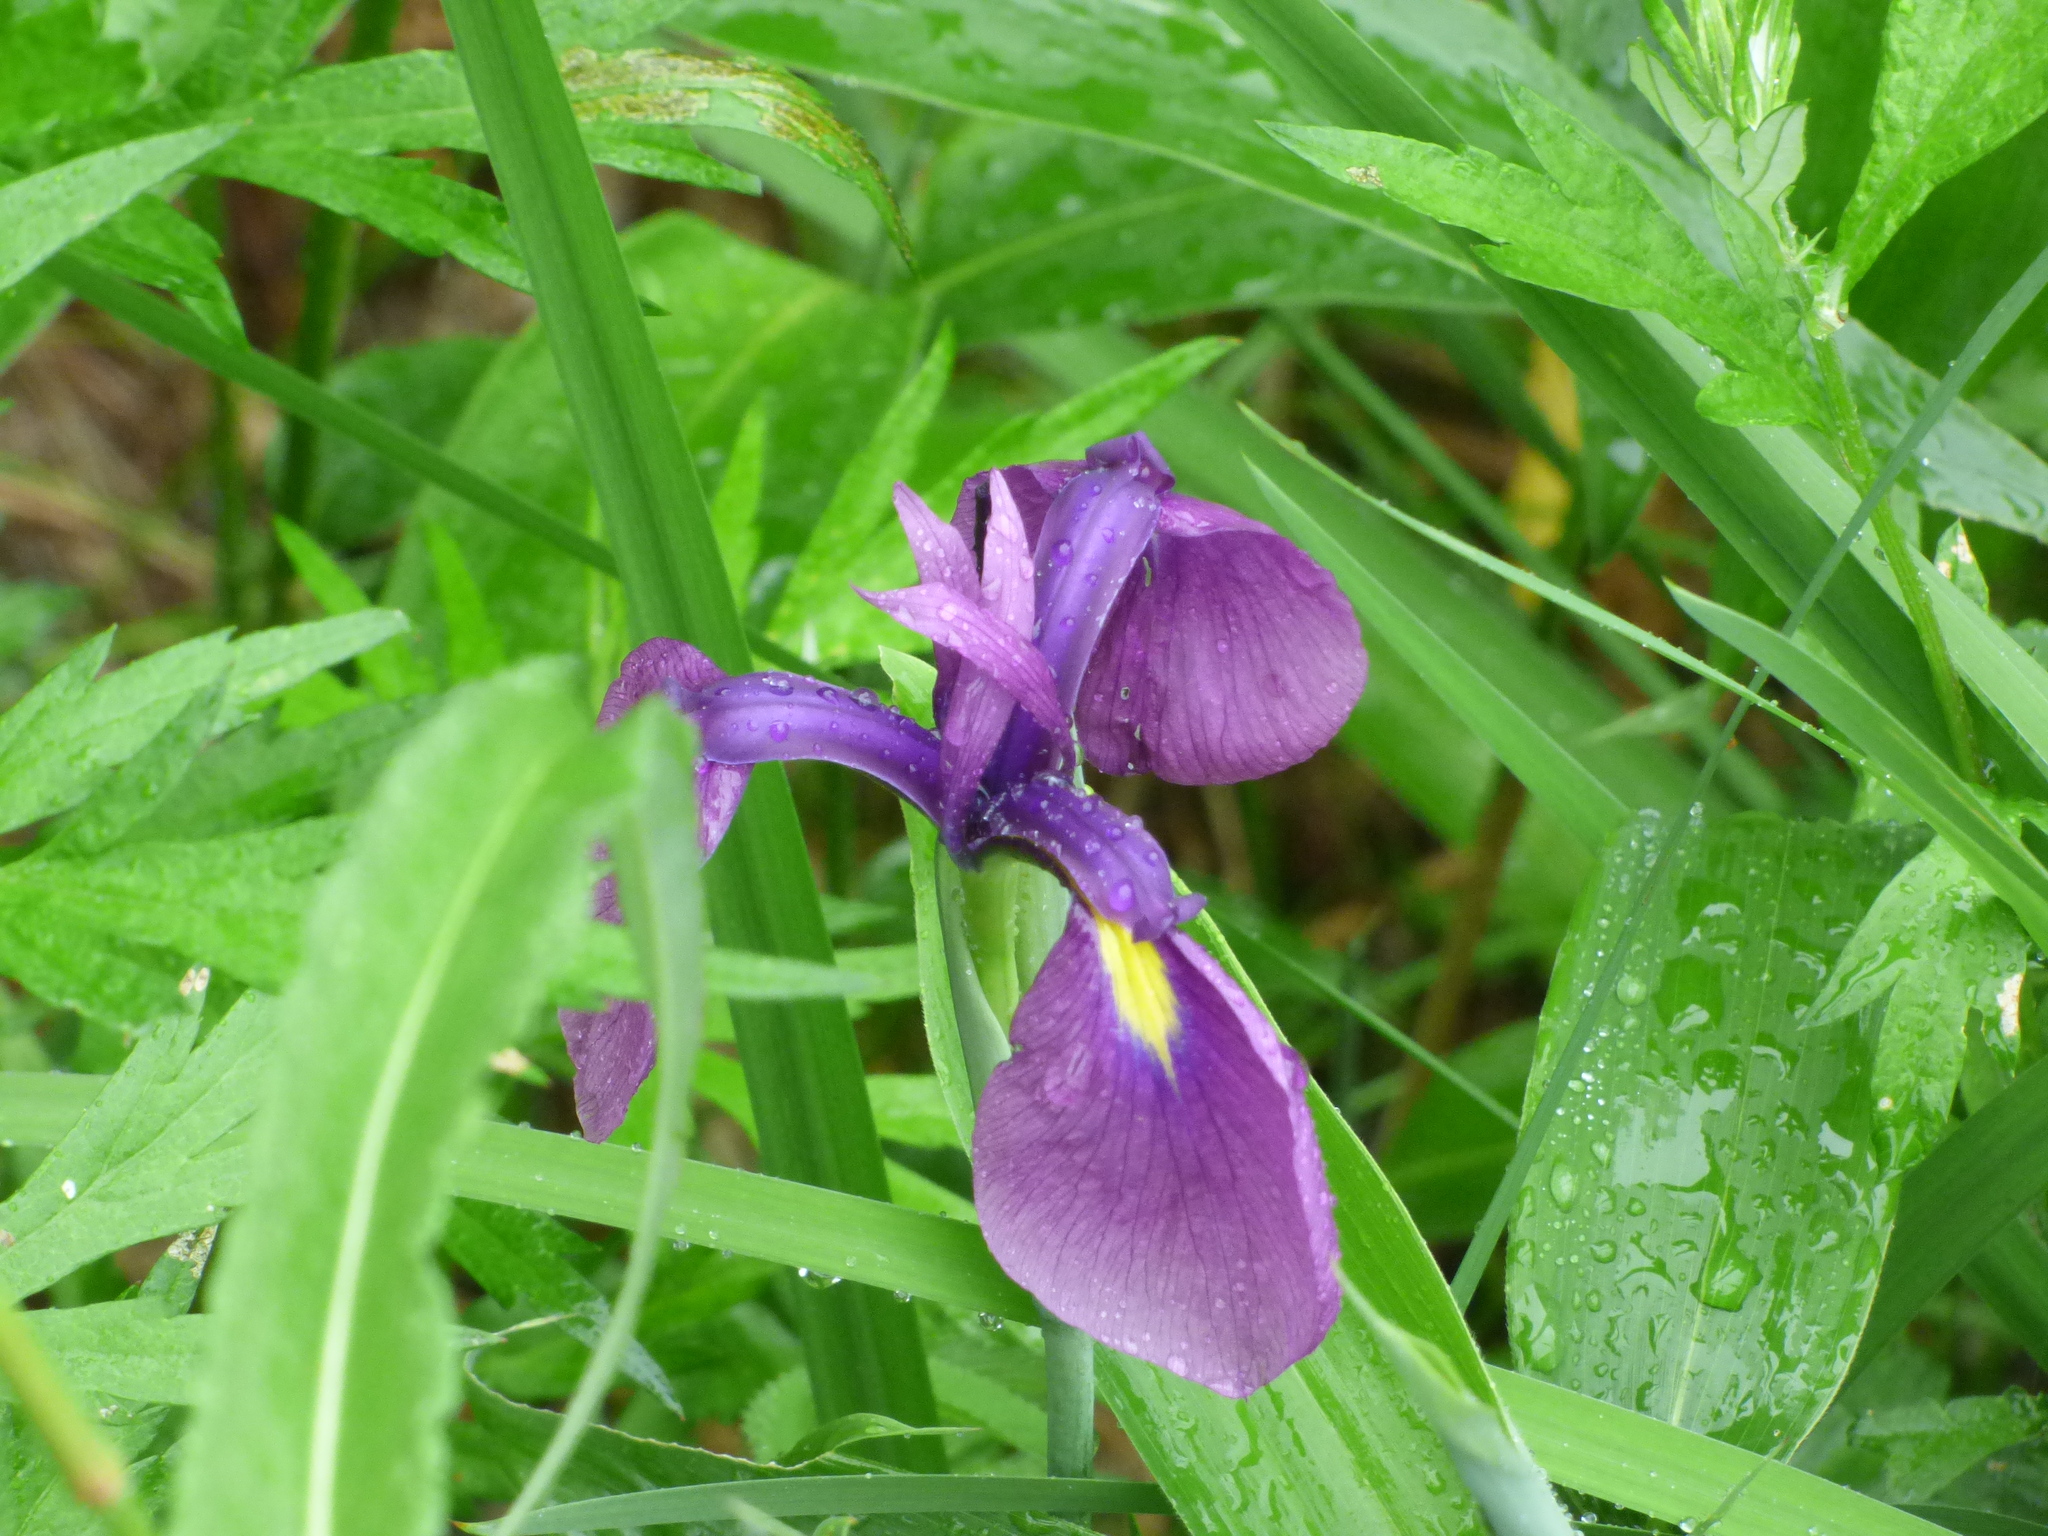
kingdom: Plantae
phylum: Tracheophyta
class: Liliopsida
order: Asparagales
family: Iridaceae
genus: Iris
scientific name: Iris ensata
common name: Beaked iris
